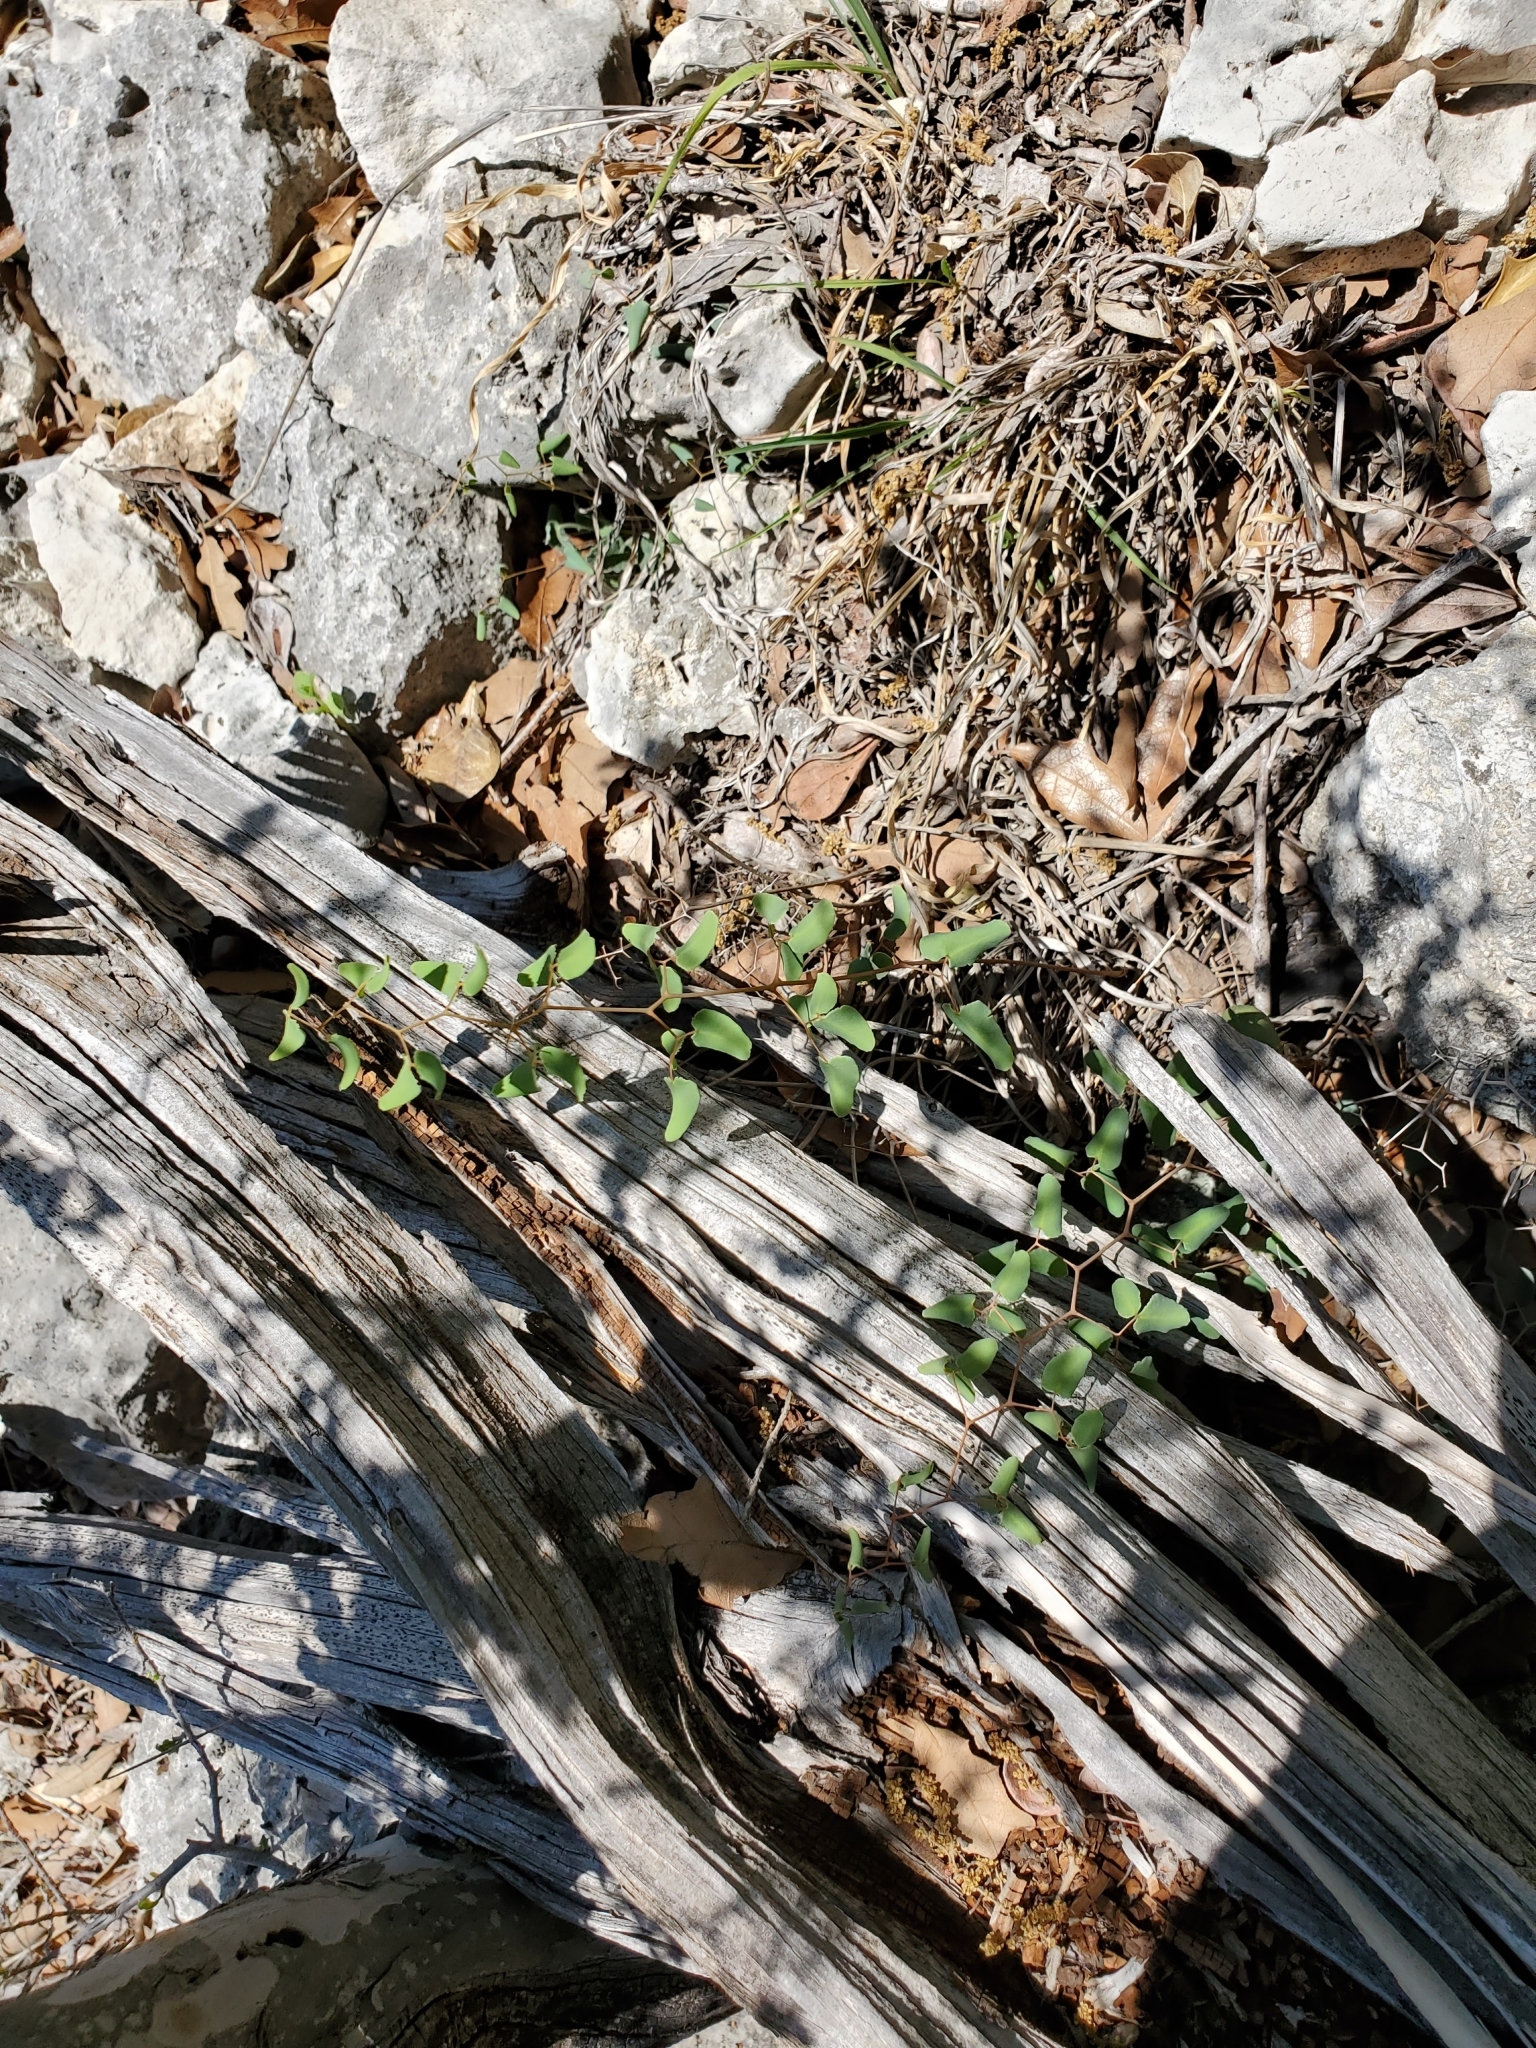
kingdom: Plantae
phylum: Tracheophyta
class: Polypodiopsida
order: Polypodiales
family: Pteridaceae
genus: Pellaea
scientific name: Pellaea ovata
